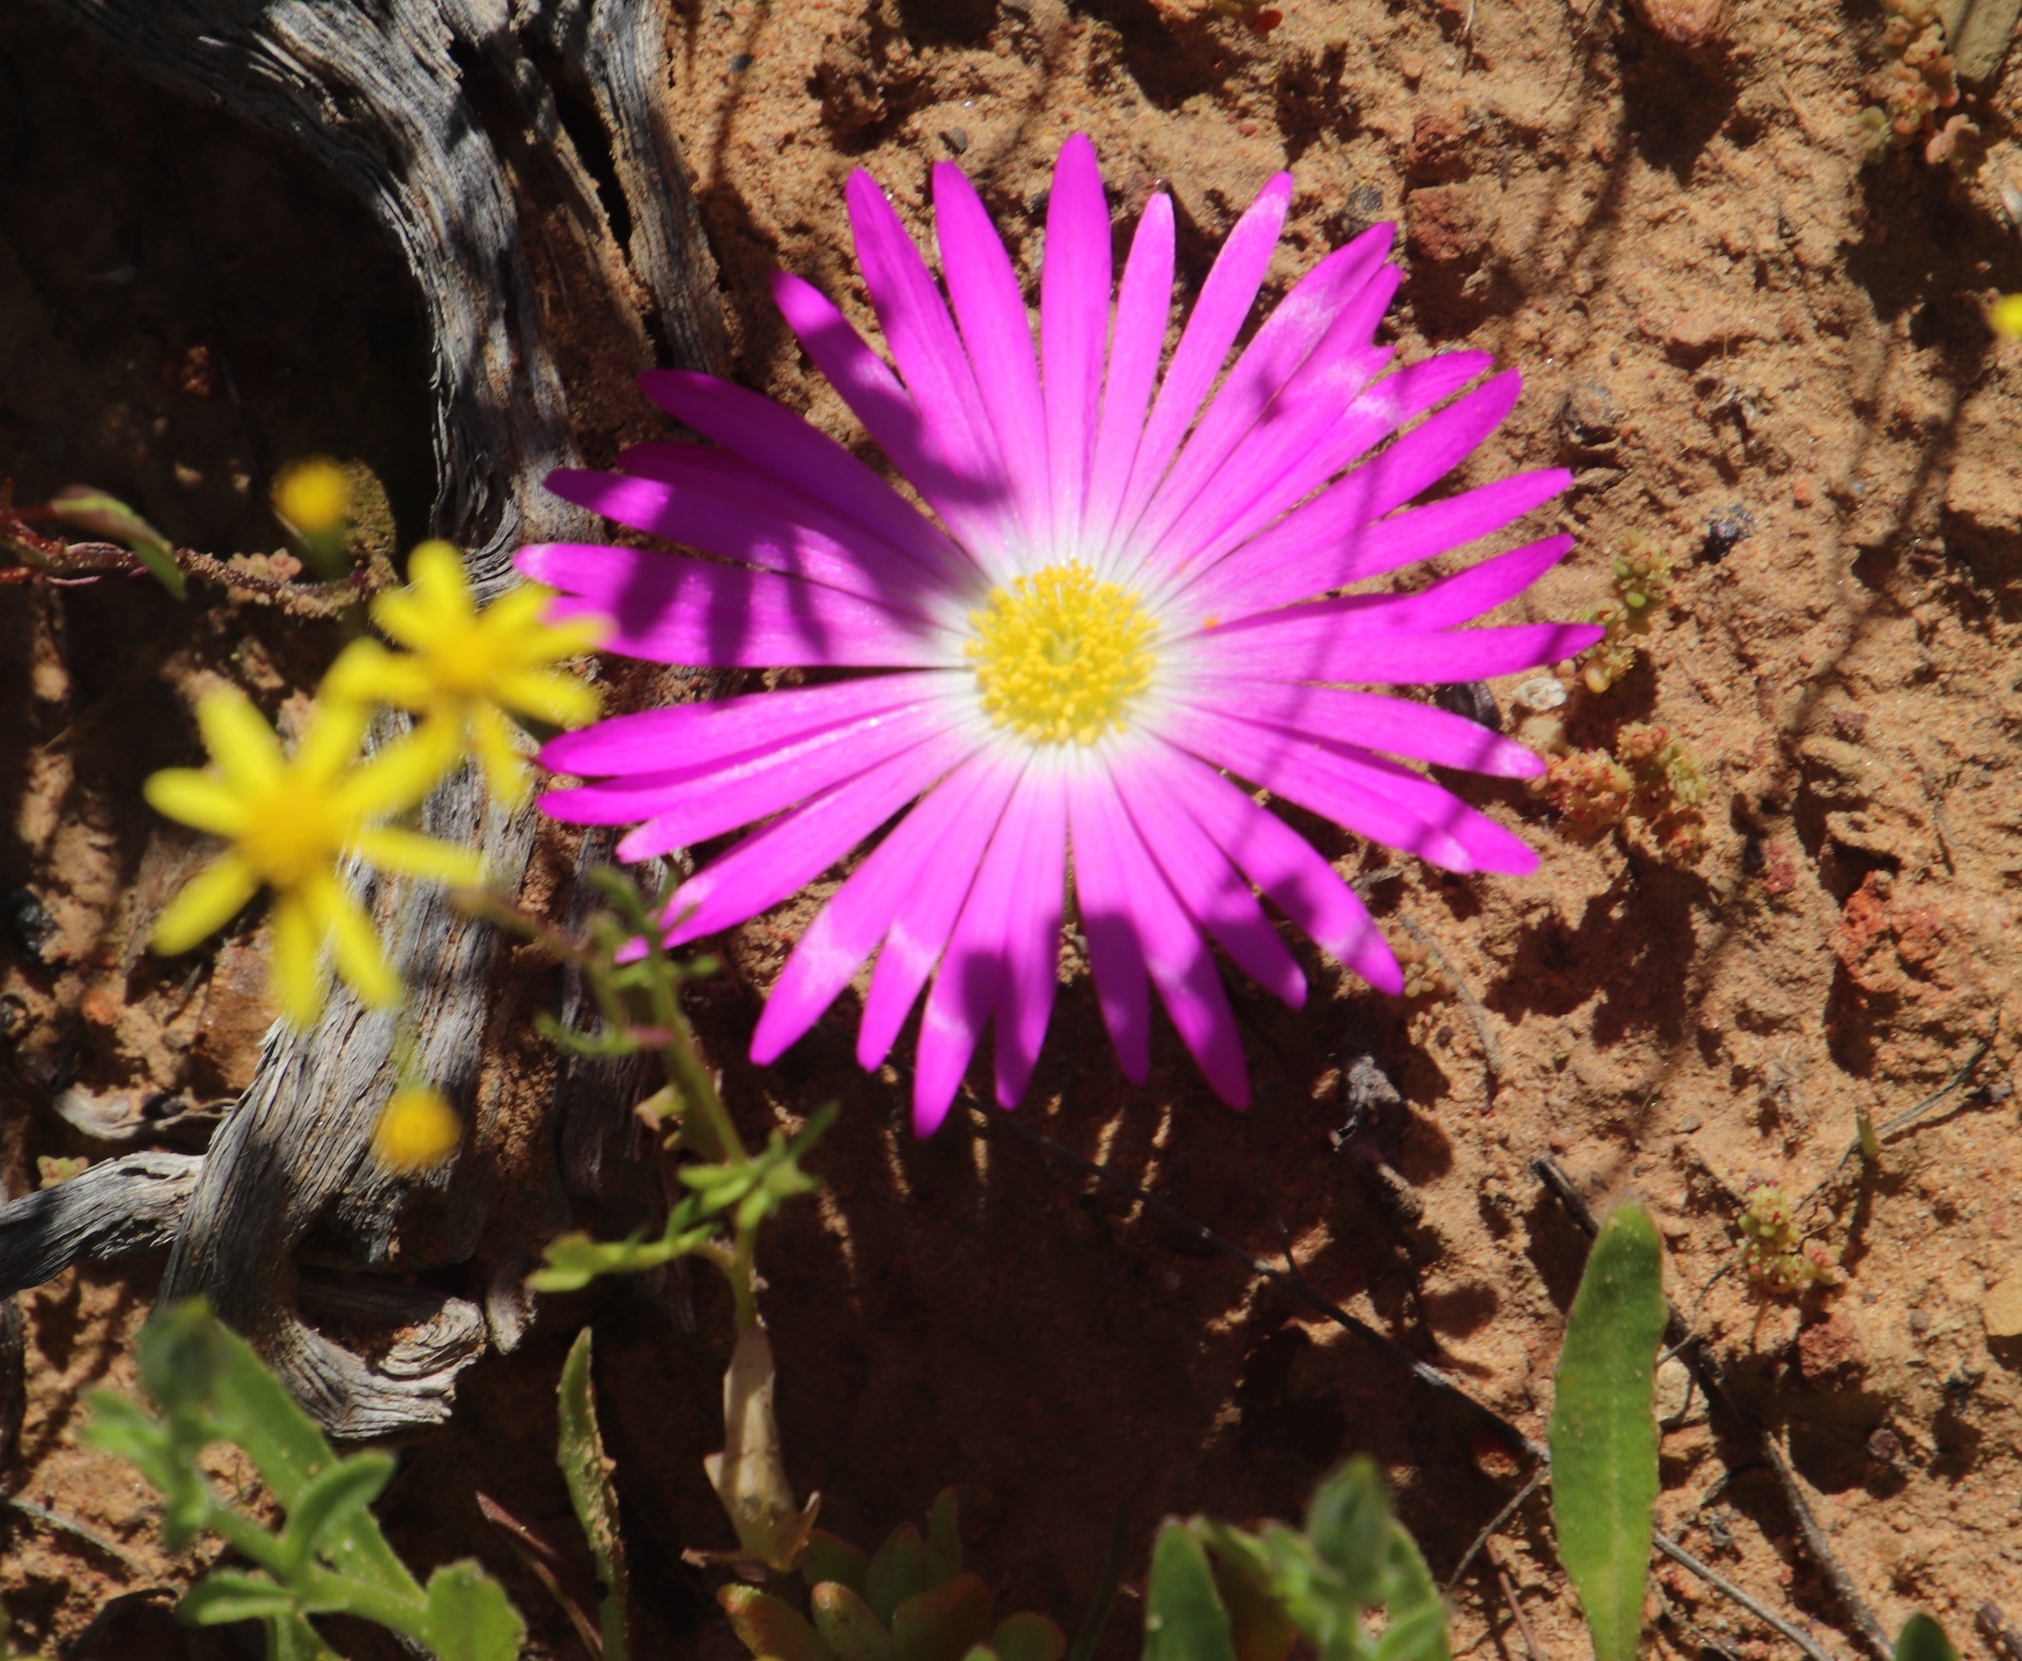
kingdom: Plantae
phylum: Tracheophyta
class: Magnoliopsida
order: Caryophyllales
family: Aizoaceae
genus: Cleretum
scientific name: Cleretum bellidiforme
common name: Livingstone daisy
